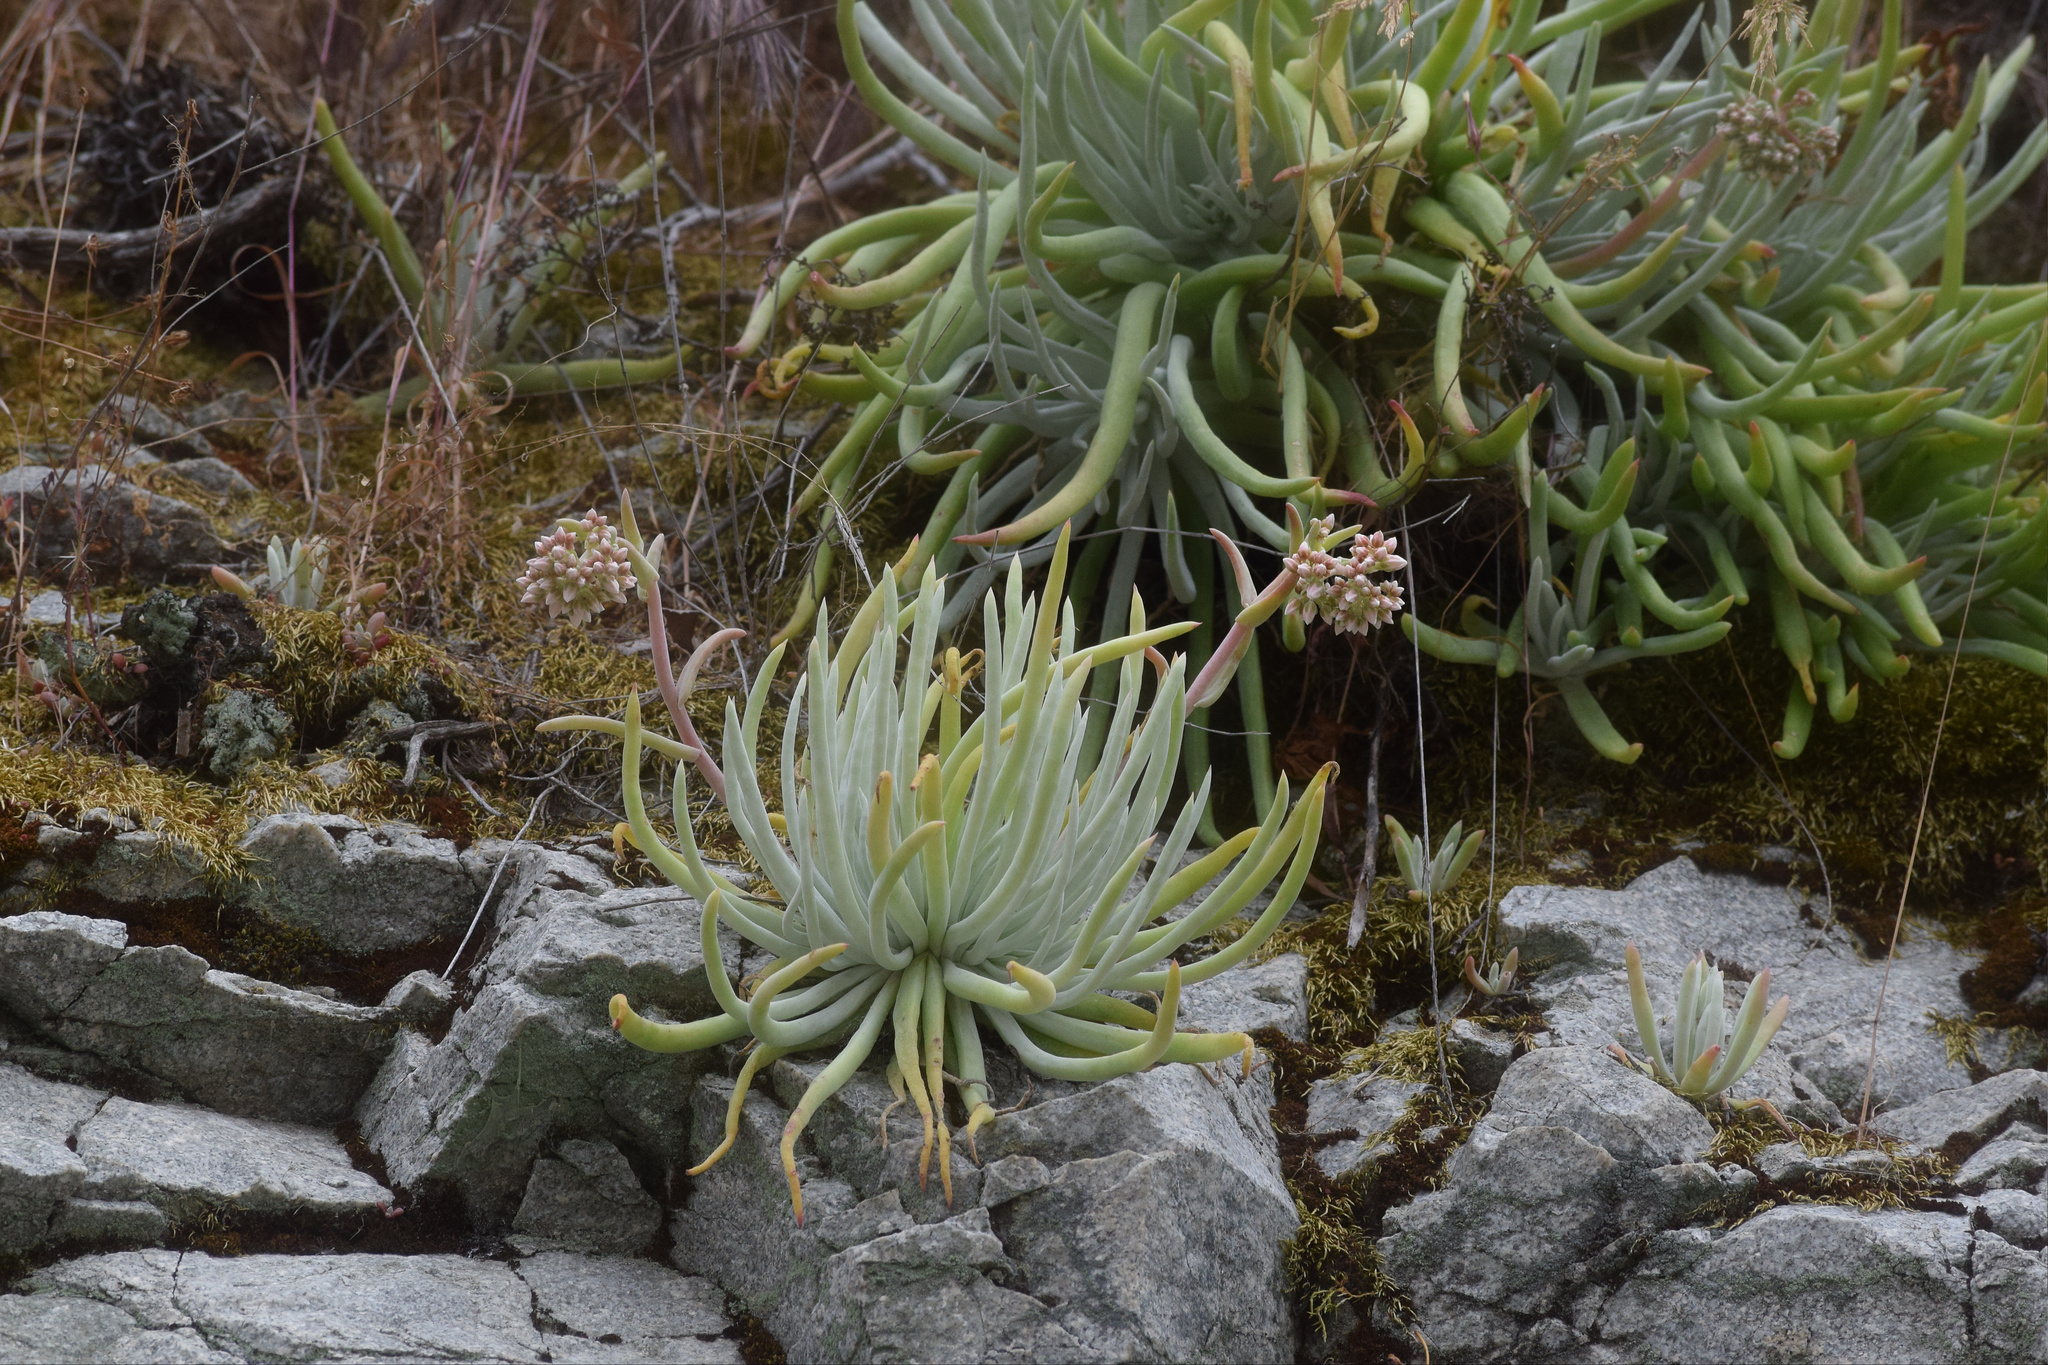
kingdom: Plantae
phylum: Tracheophyta
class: Magnoliopsida
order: Saxifragales
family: Crassulaceae
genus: Dudleya
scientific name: Dudleya densiflora
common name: San gabriel mountains dudleya
